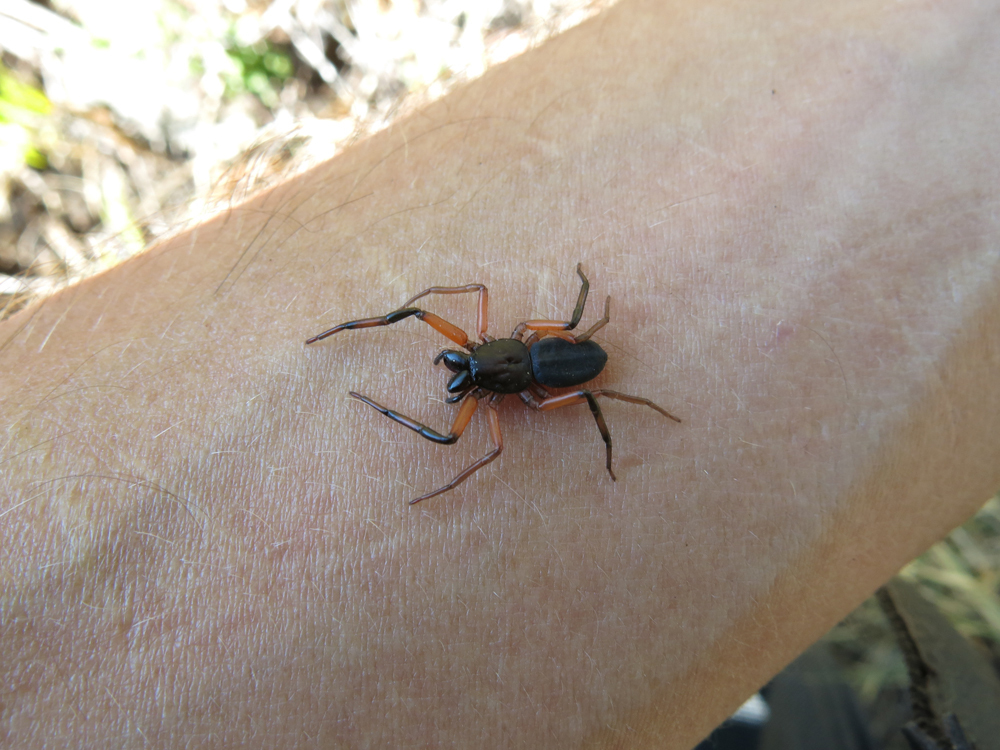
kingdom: Animalia
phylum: Arthropoda
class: Arachnida
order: Araneae
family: Trochanteriidae
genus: Platyoides
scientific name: Platyoides walteri
